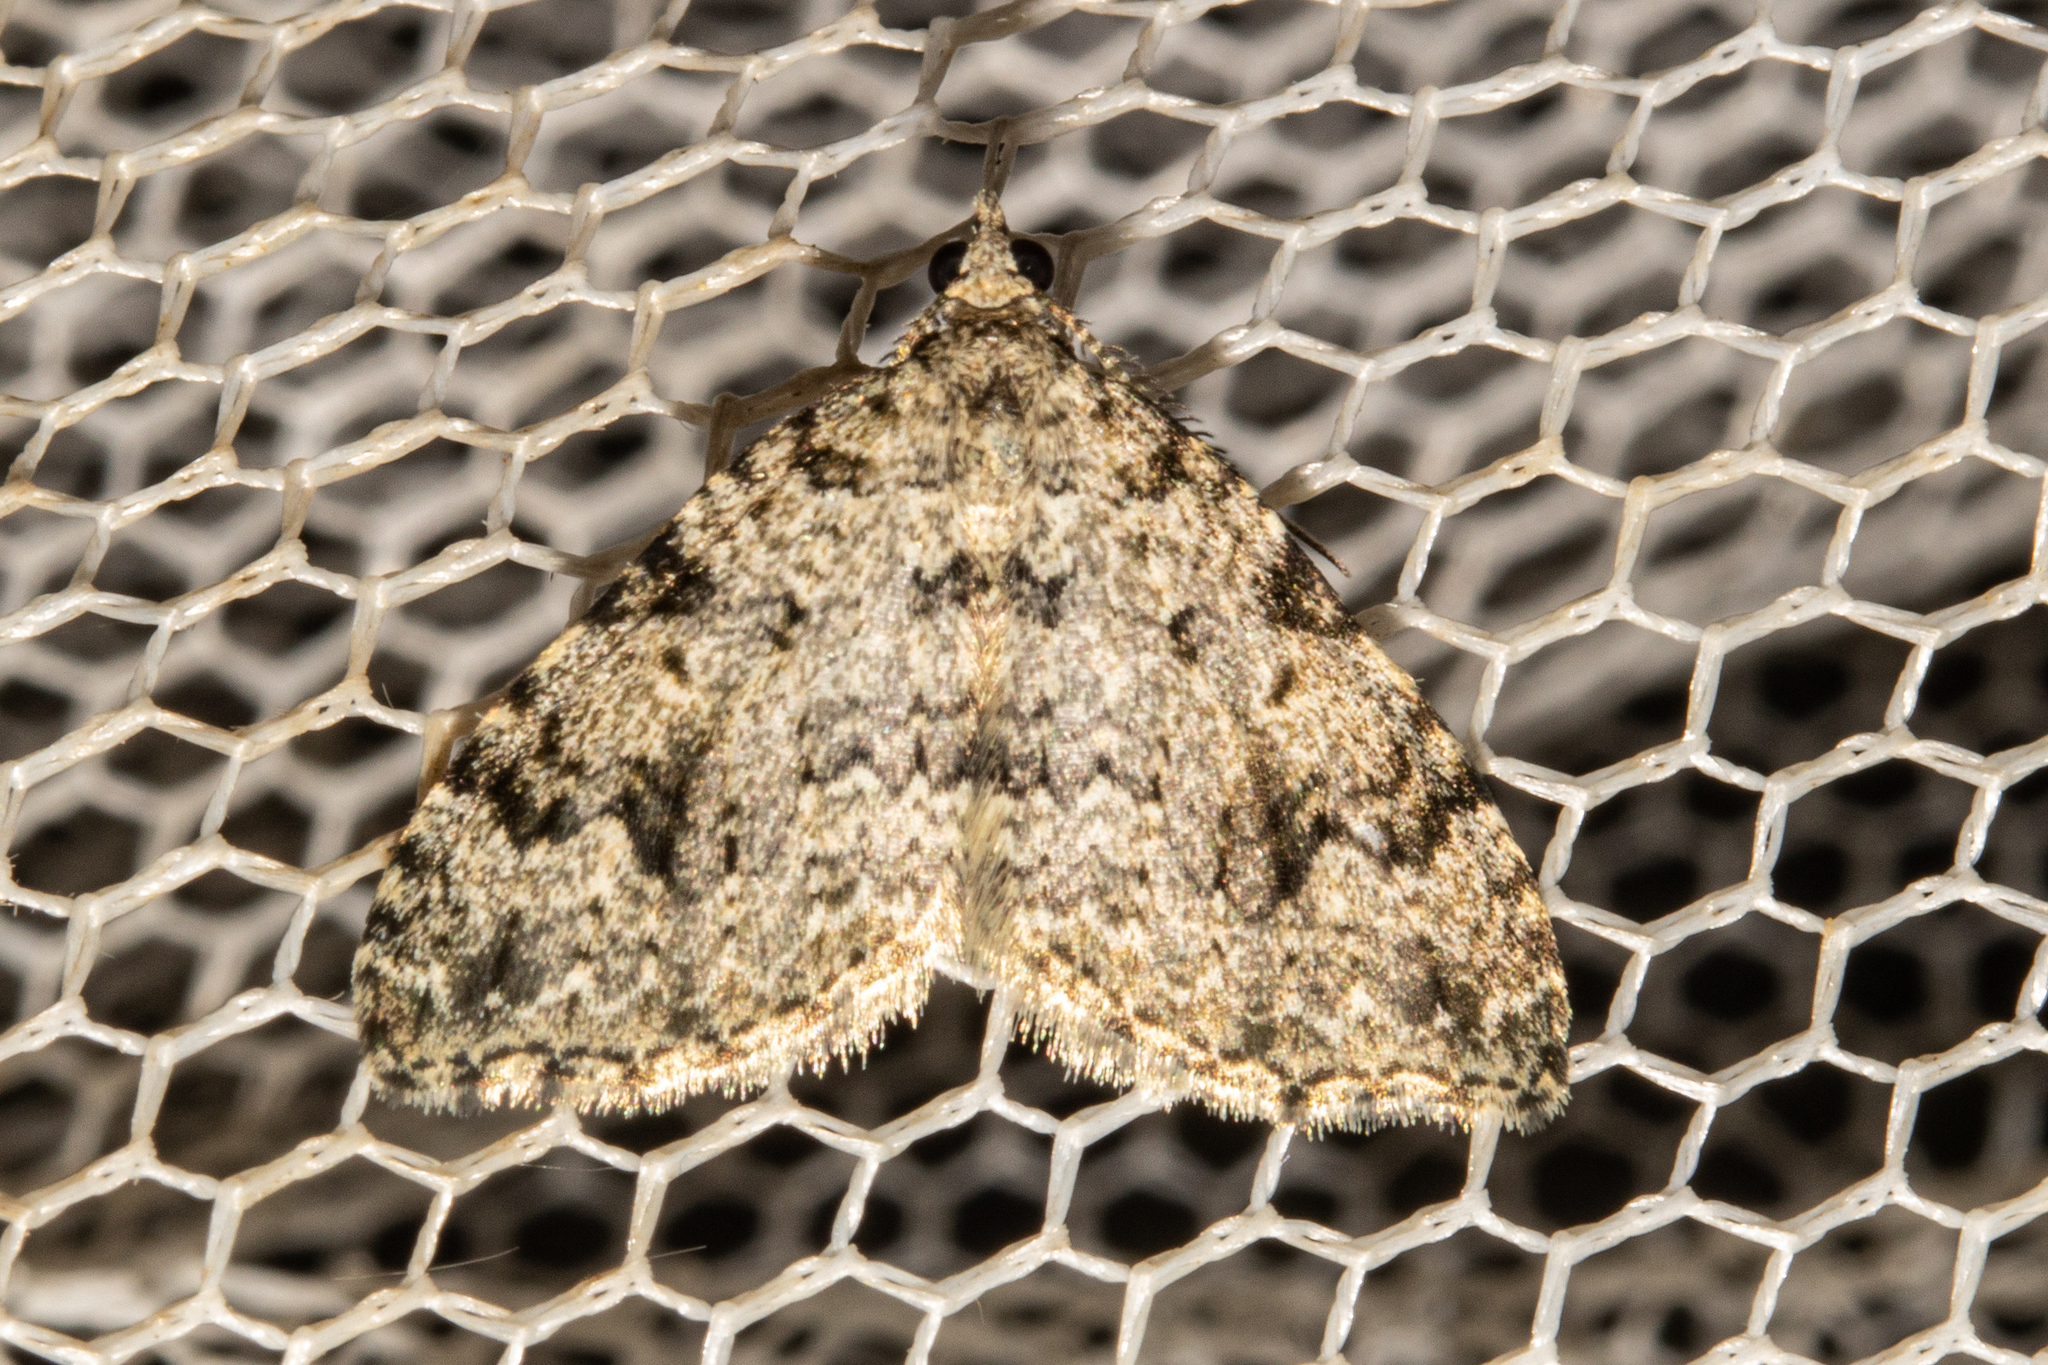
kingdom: Animalia
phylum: Arthropoda
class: Insecta
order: Lepidoptera
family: Geometridae
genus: Helastia
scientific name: Helastia cinerearia
